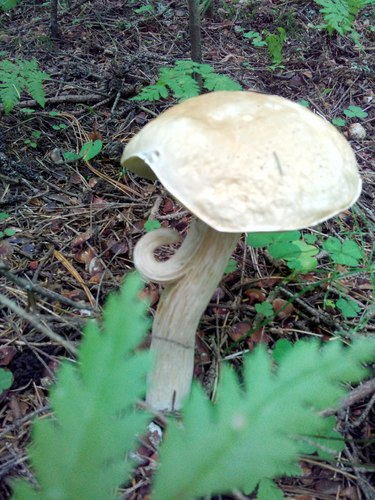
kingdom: Fungi
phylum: Basidiomycota
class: Agaricomycetes
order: Boletales
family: Boletaceae
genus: Boletus
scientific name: Boletus edulis
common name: Cep
